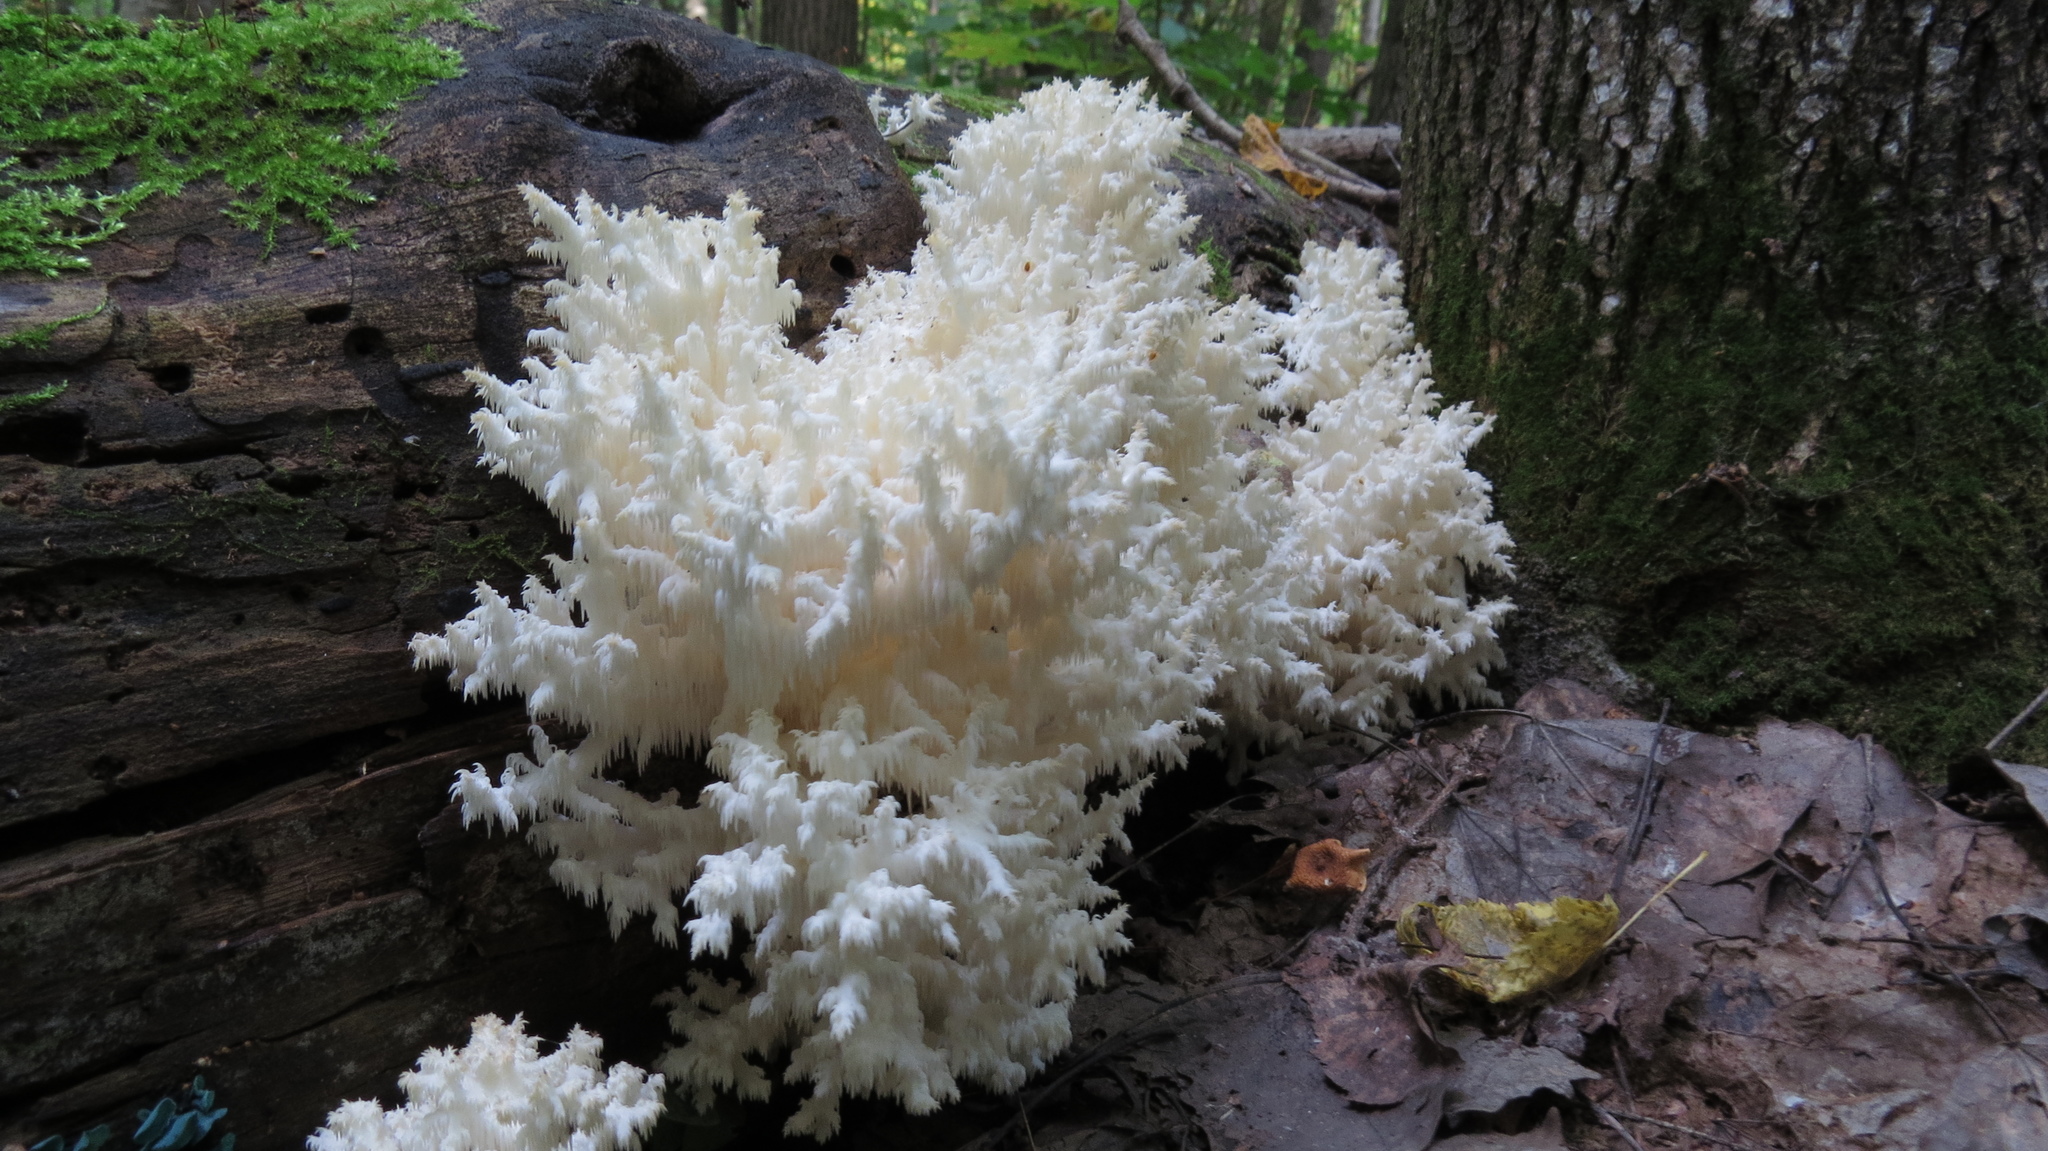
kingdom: Fungi
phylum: Basidiomycota
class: Agaricomycetes
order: Russulales
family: Hericiaceae
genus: Hericium
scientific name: Hericium coralloides
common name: Coral tooth
